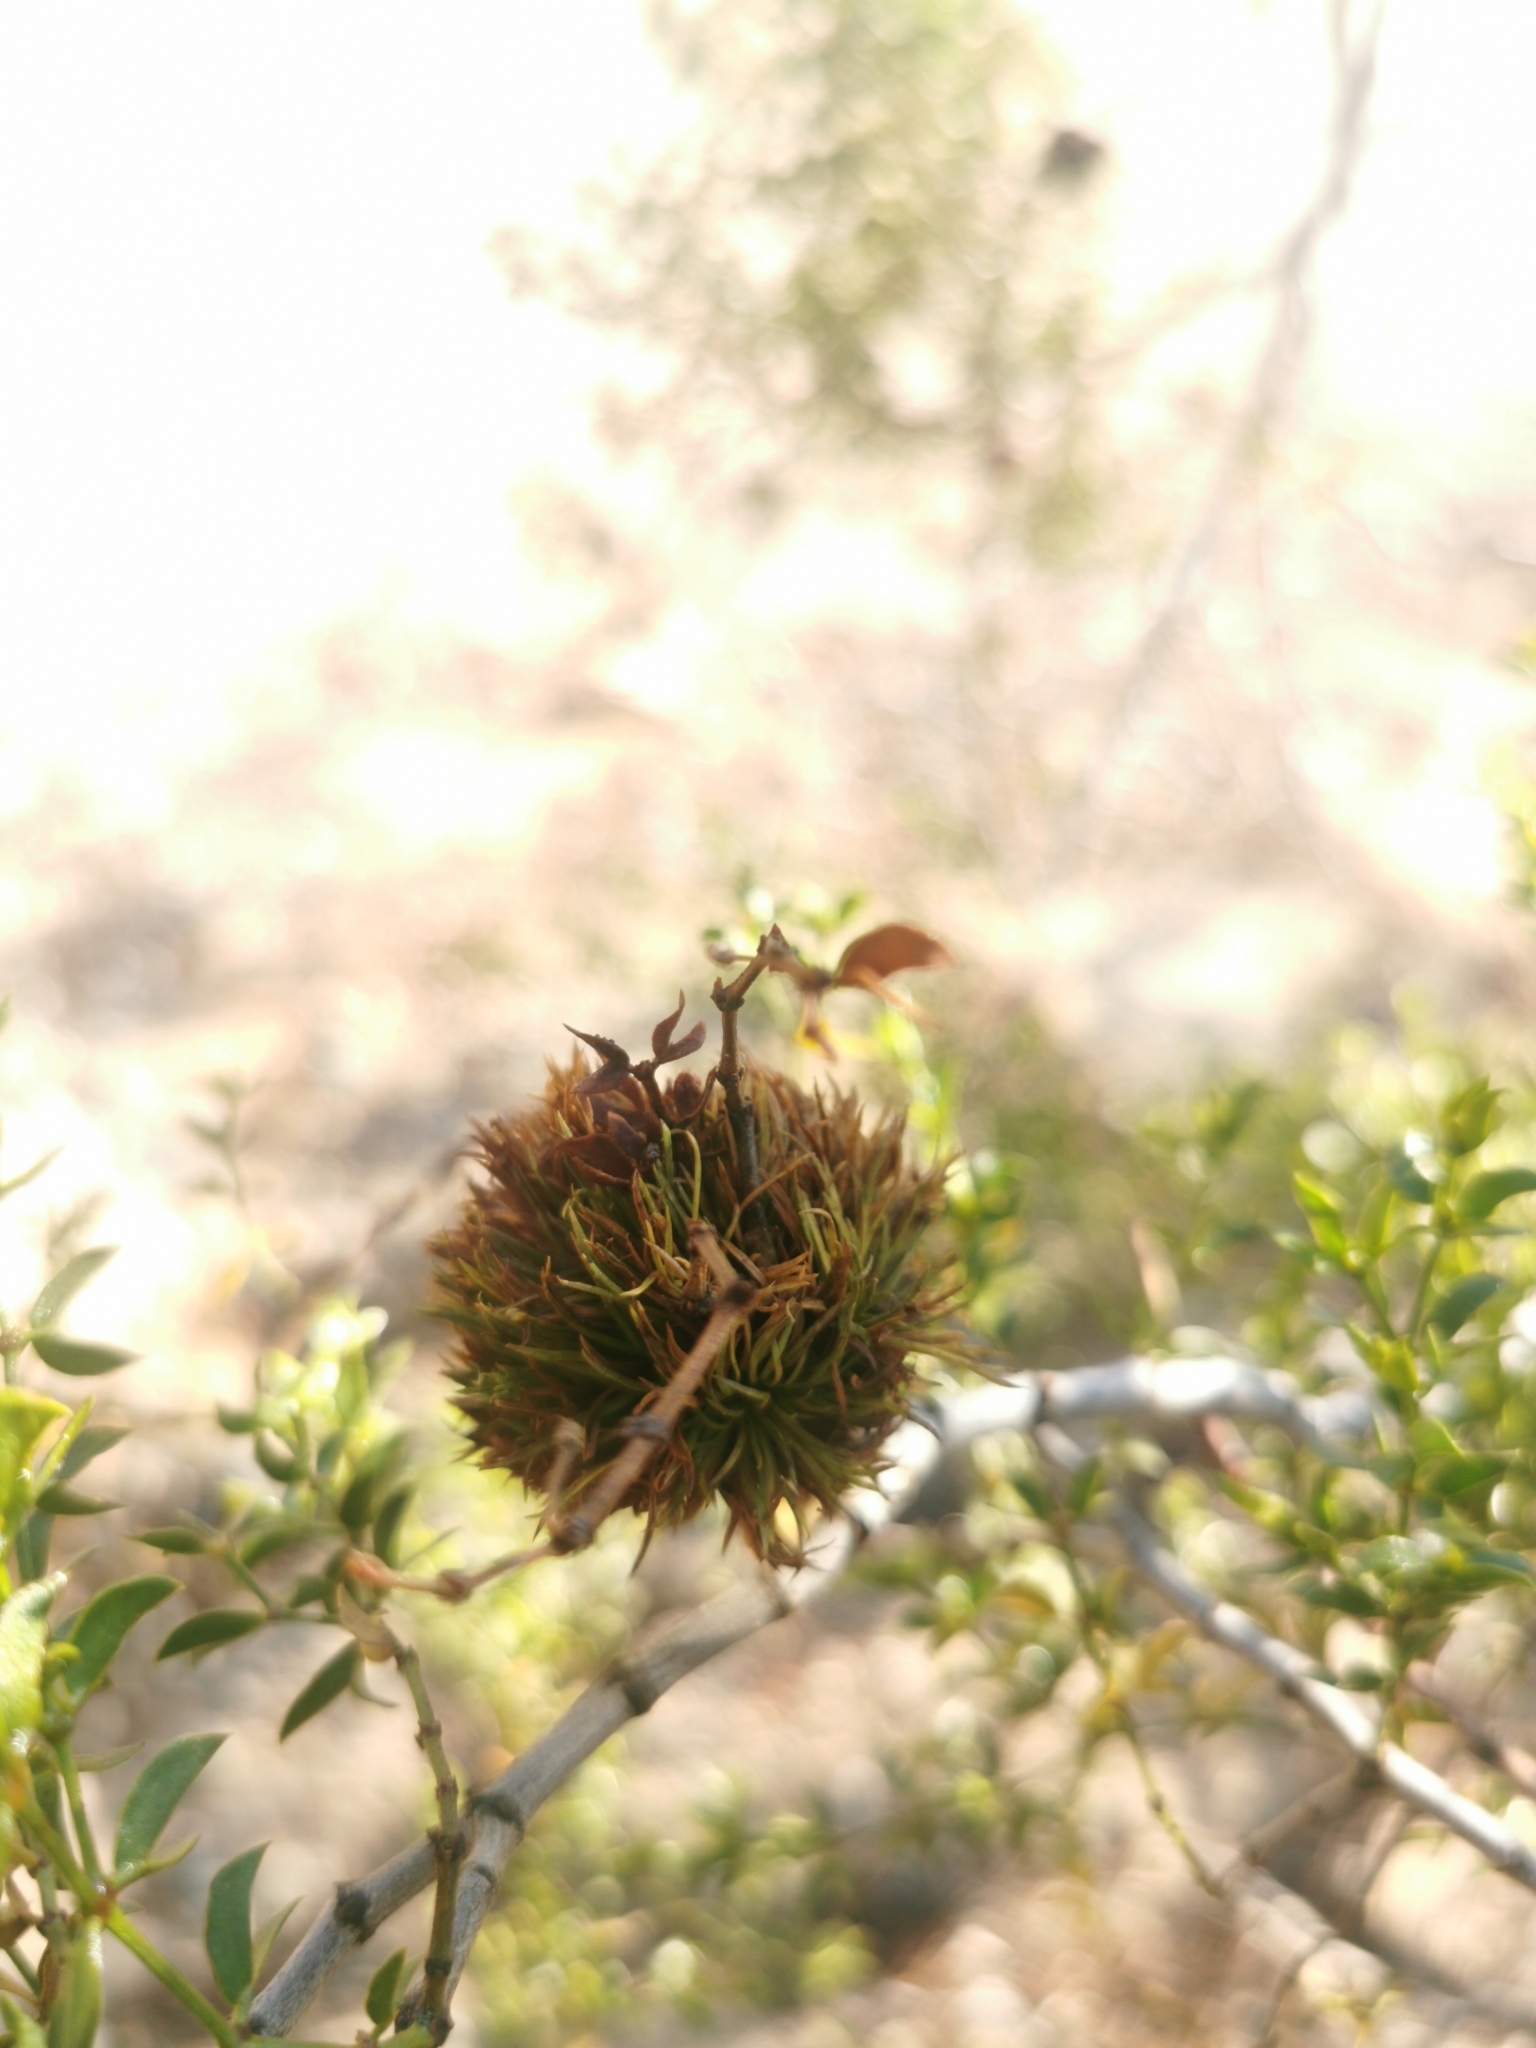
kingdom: Animalia
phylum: Arthropoda
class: Insecta
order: Diptera
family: Cecidomyiidae
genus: Asphondylia
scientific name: Asphondylia auripila
